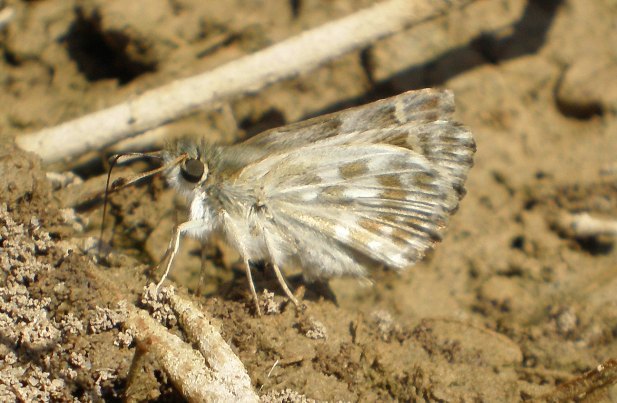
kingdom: Animalia
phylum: Arthropoda
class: Insecta
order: Lepidoptera
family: Hesperiidae
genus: Syrichtus
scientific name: Syrichtus Muschampia baeticus
